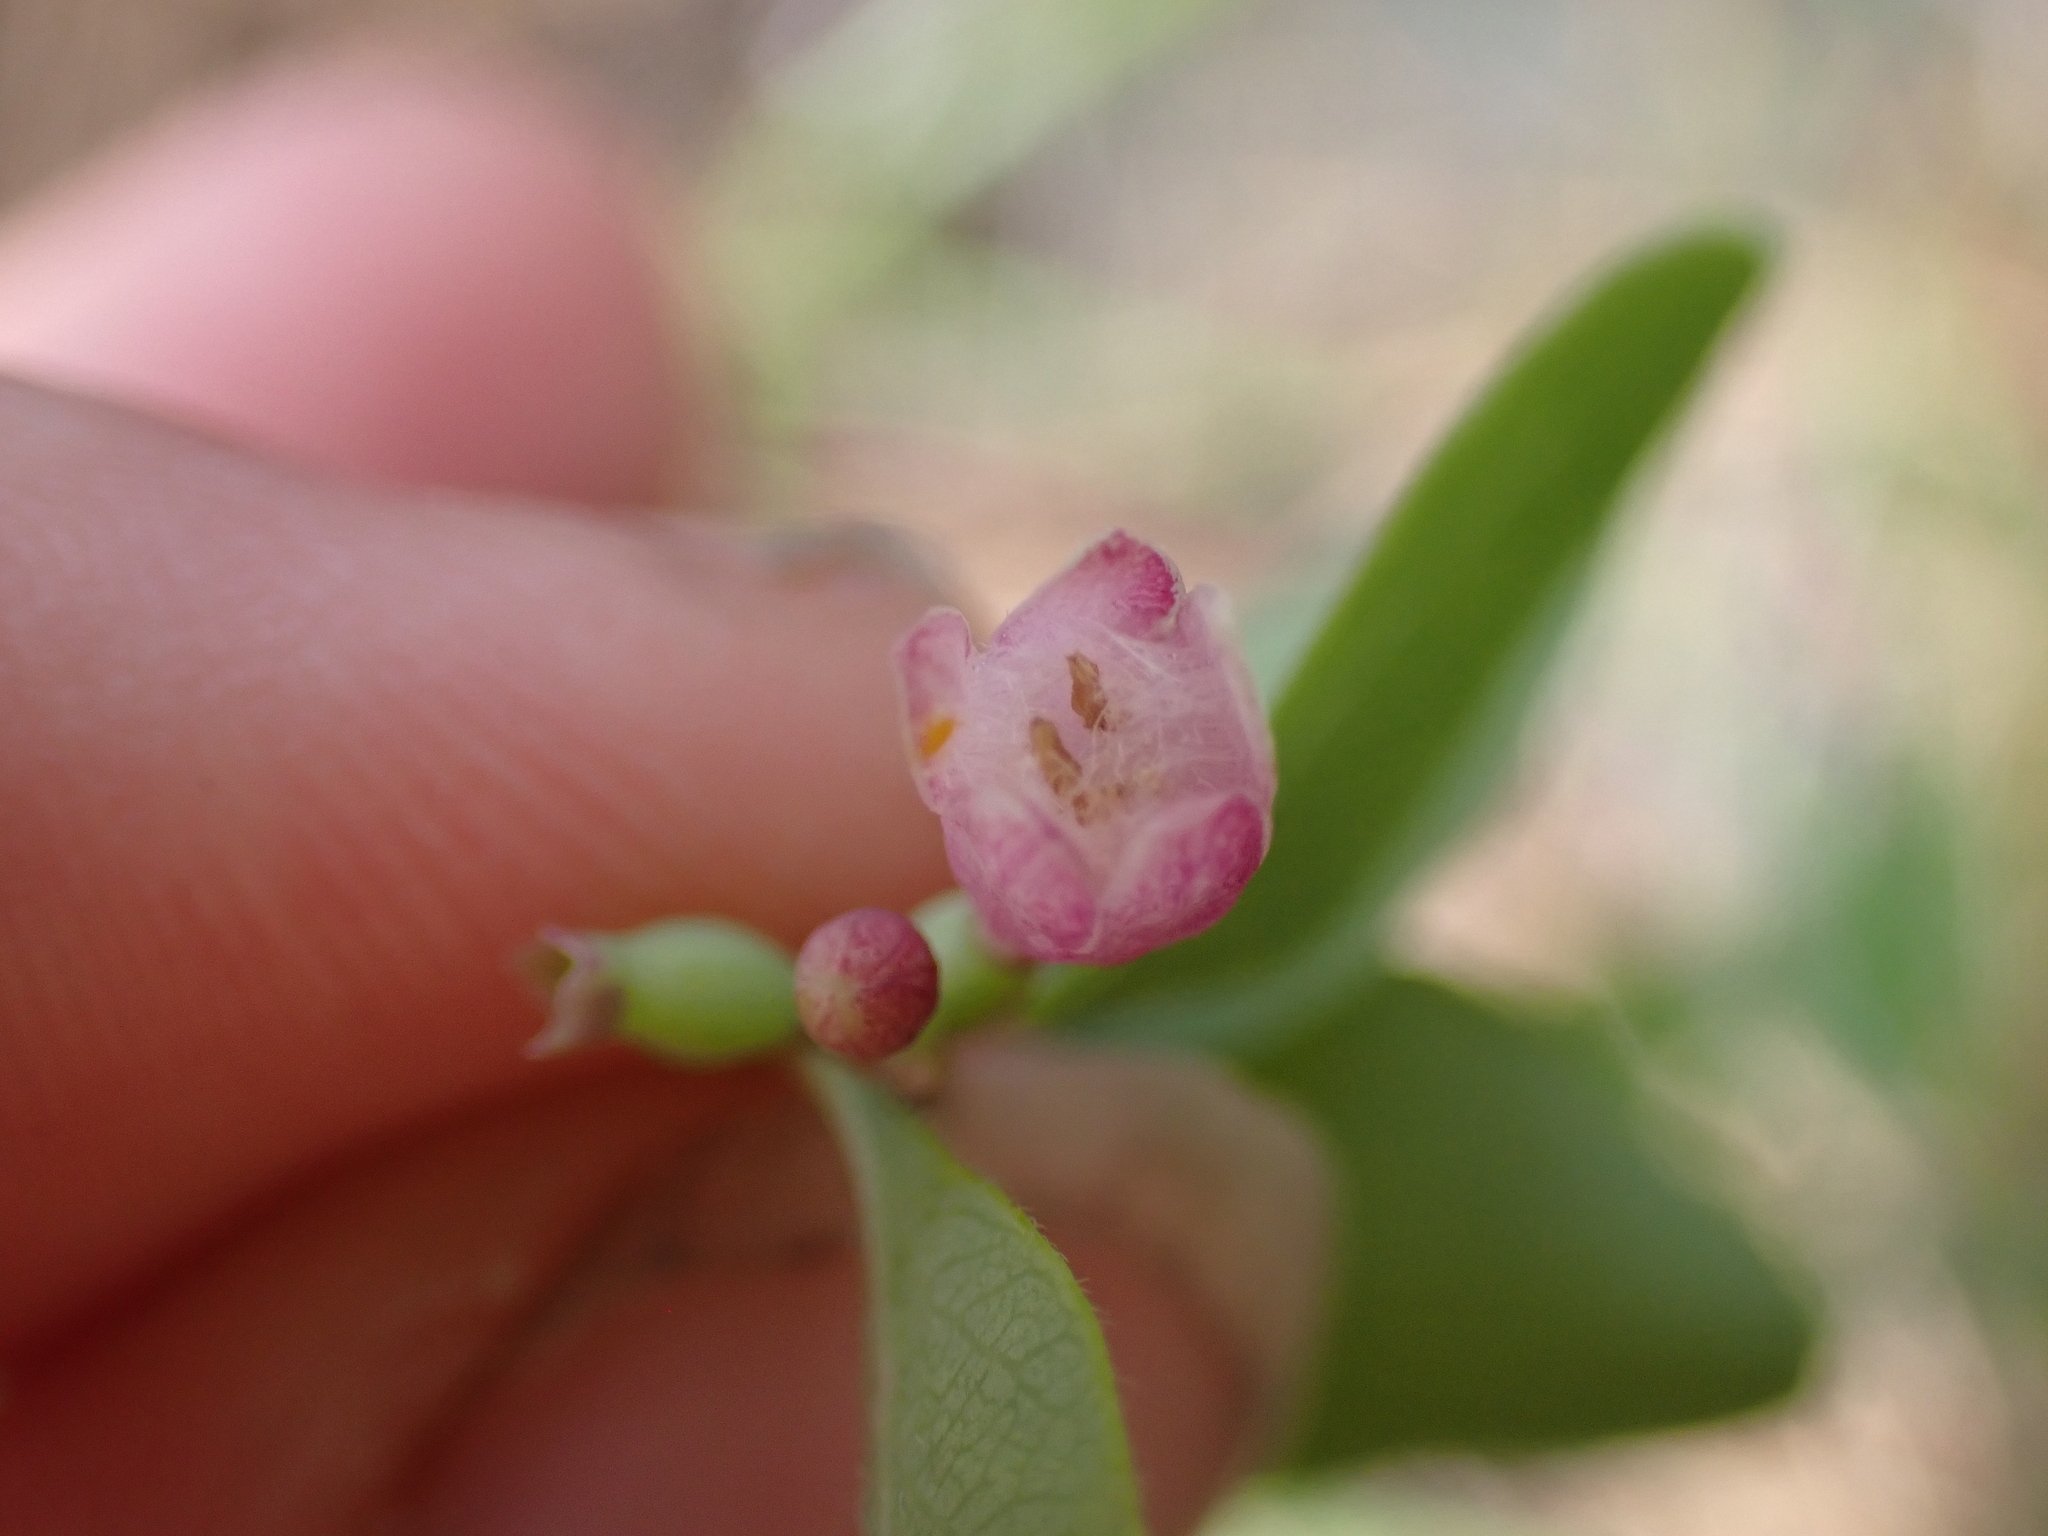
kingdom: Plantae
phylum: Tracheophyta
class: Magnoliopsida
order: Gentianales
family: Apocynaceae
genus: Apocynum
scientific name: Apocynum androsaemifolium
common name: Spreading dogbane
